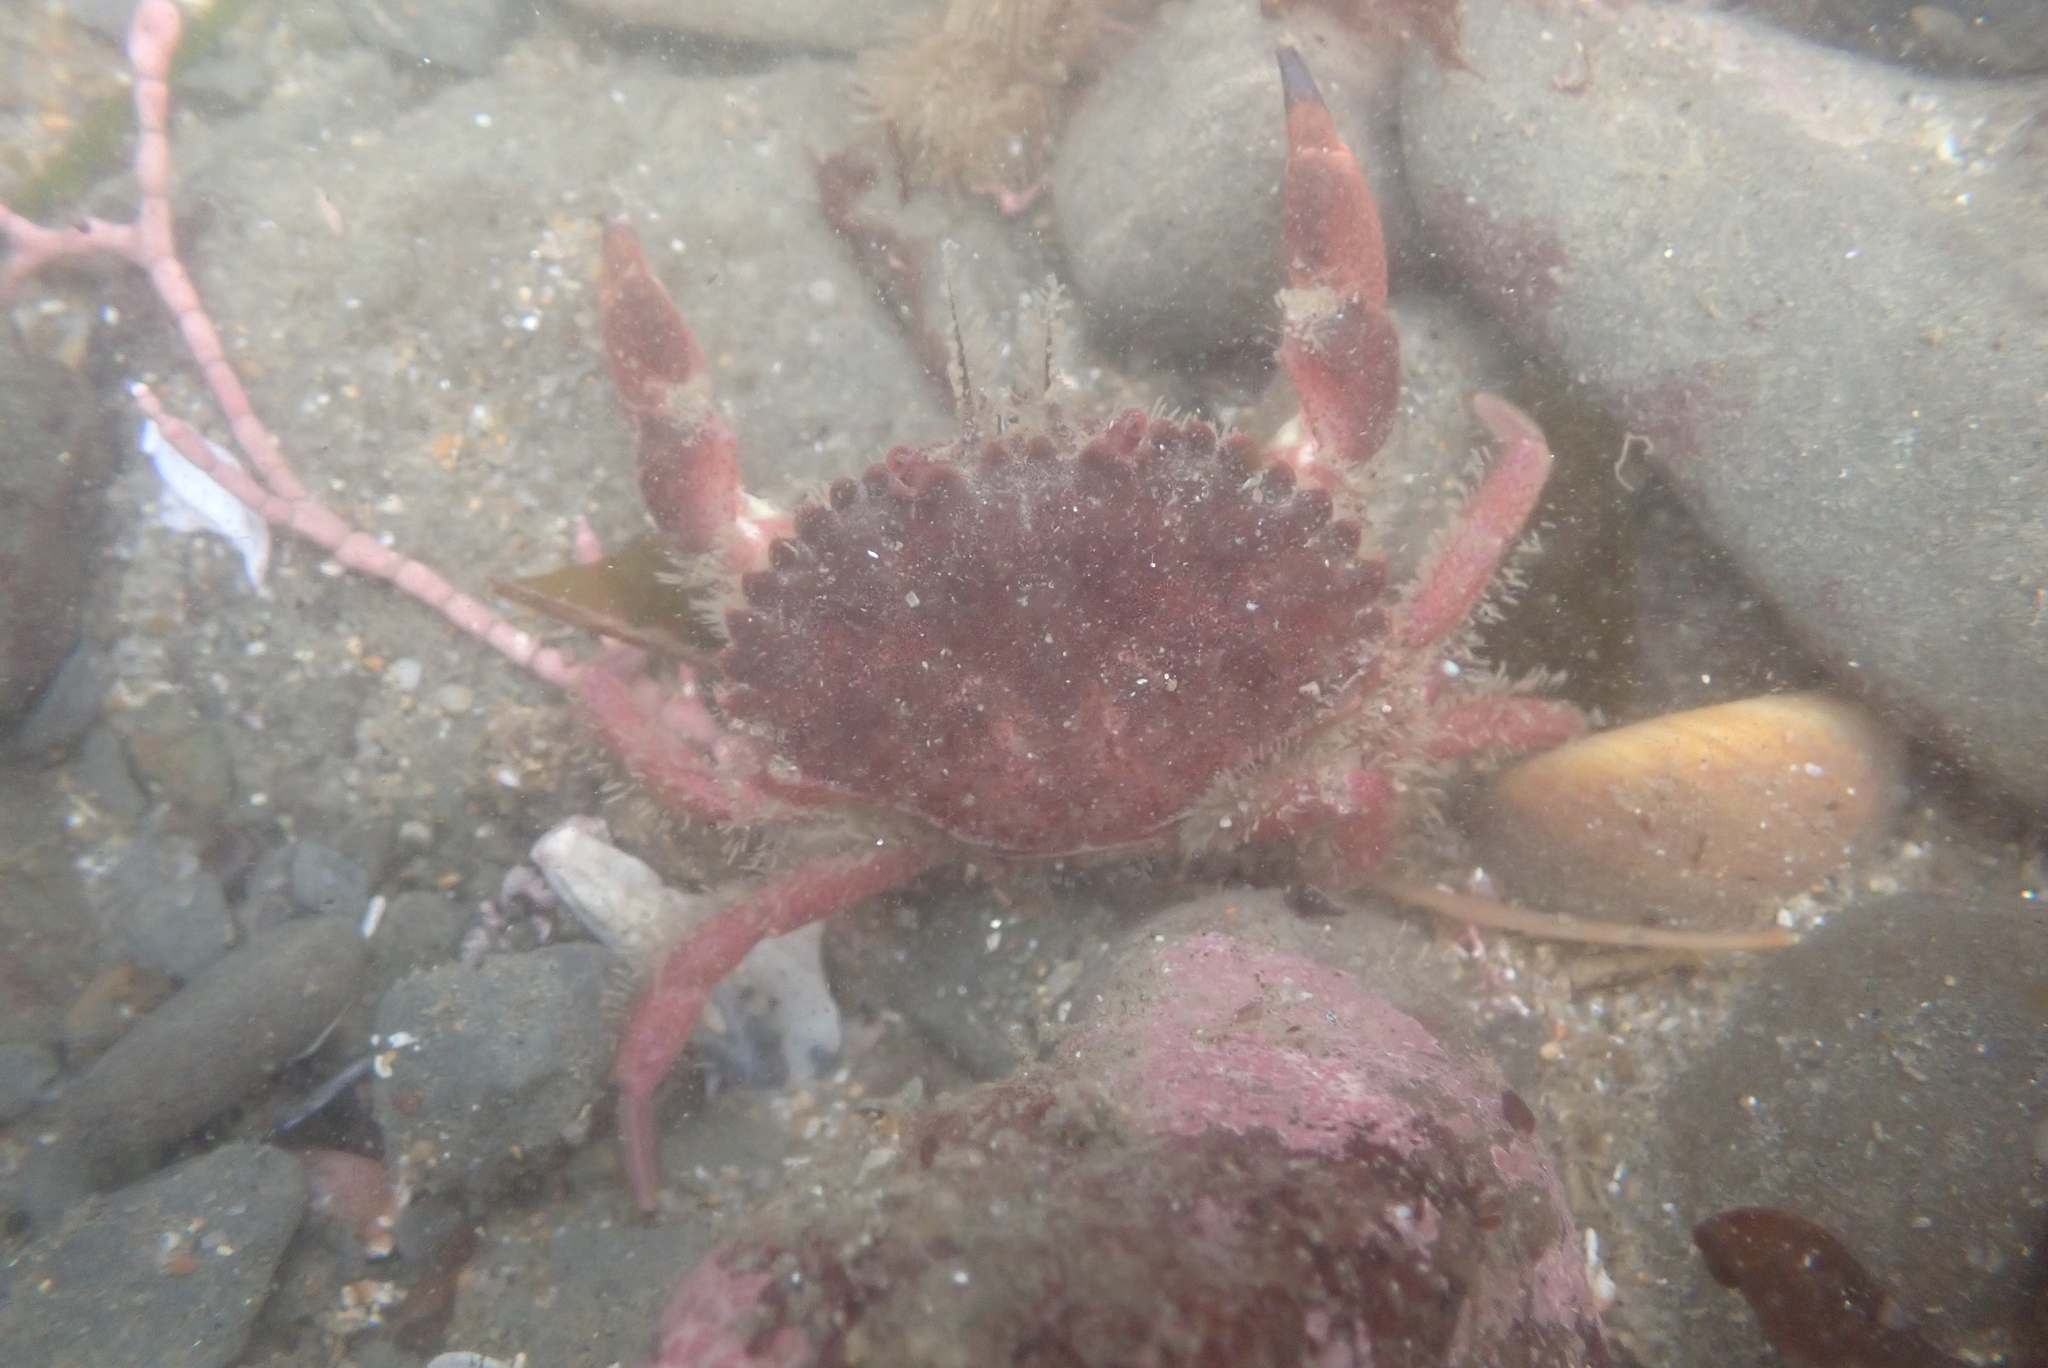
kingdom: Animalia
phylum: Arthropoda
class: Malacostraca
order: Decapoda
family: Cancridae
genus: Romaleon
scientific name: Romaleon antennarium
